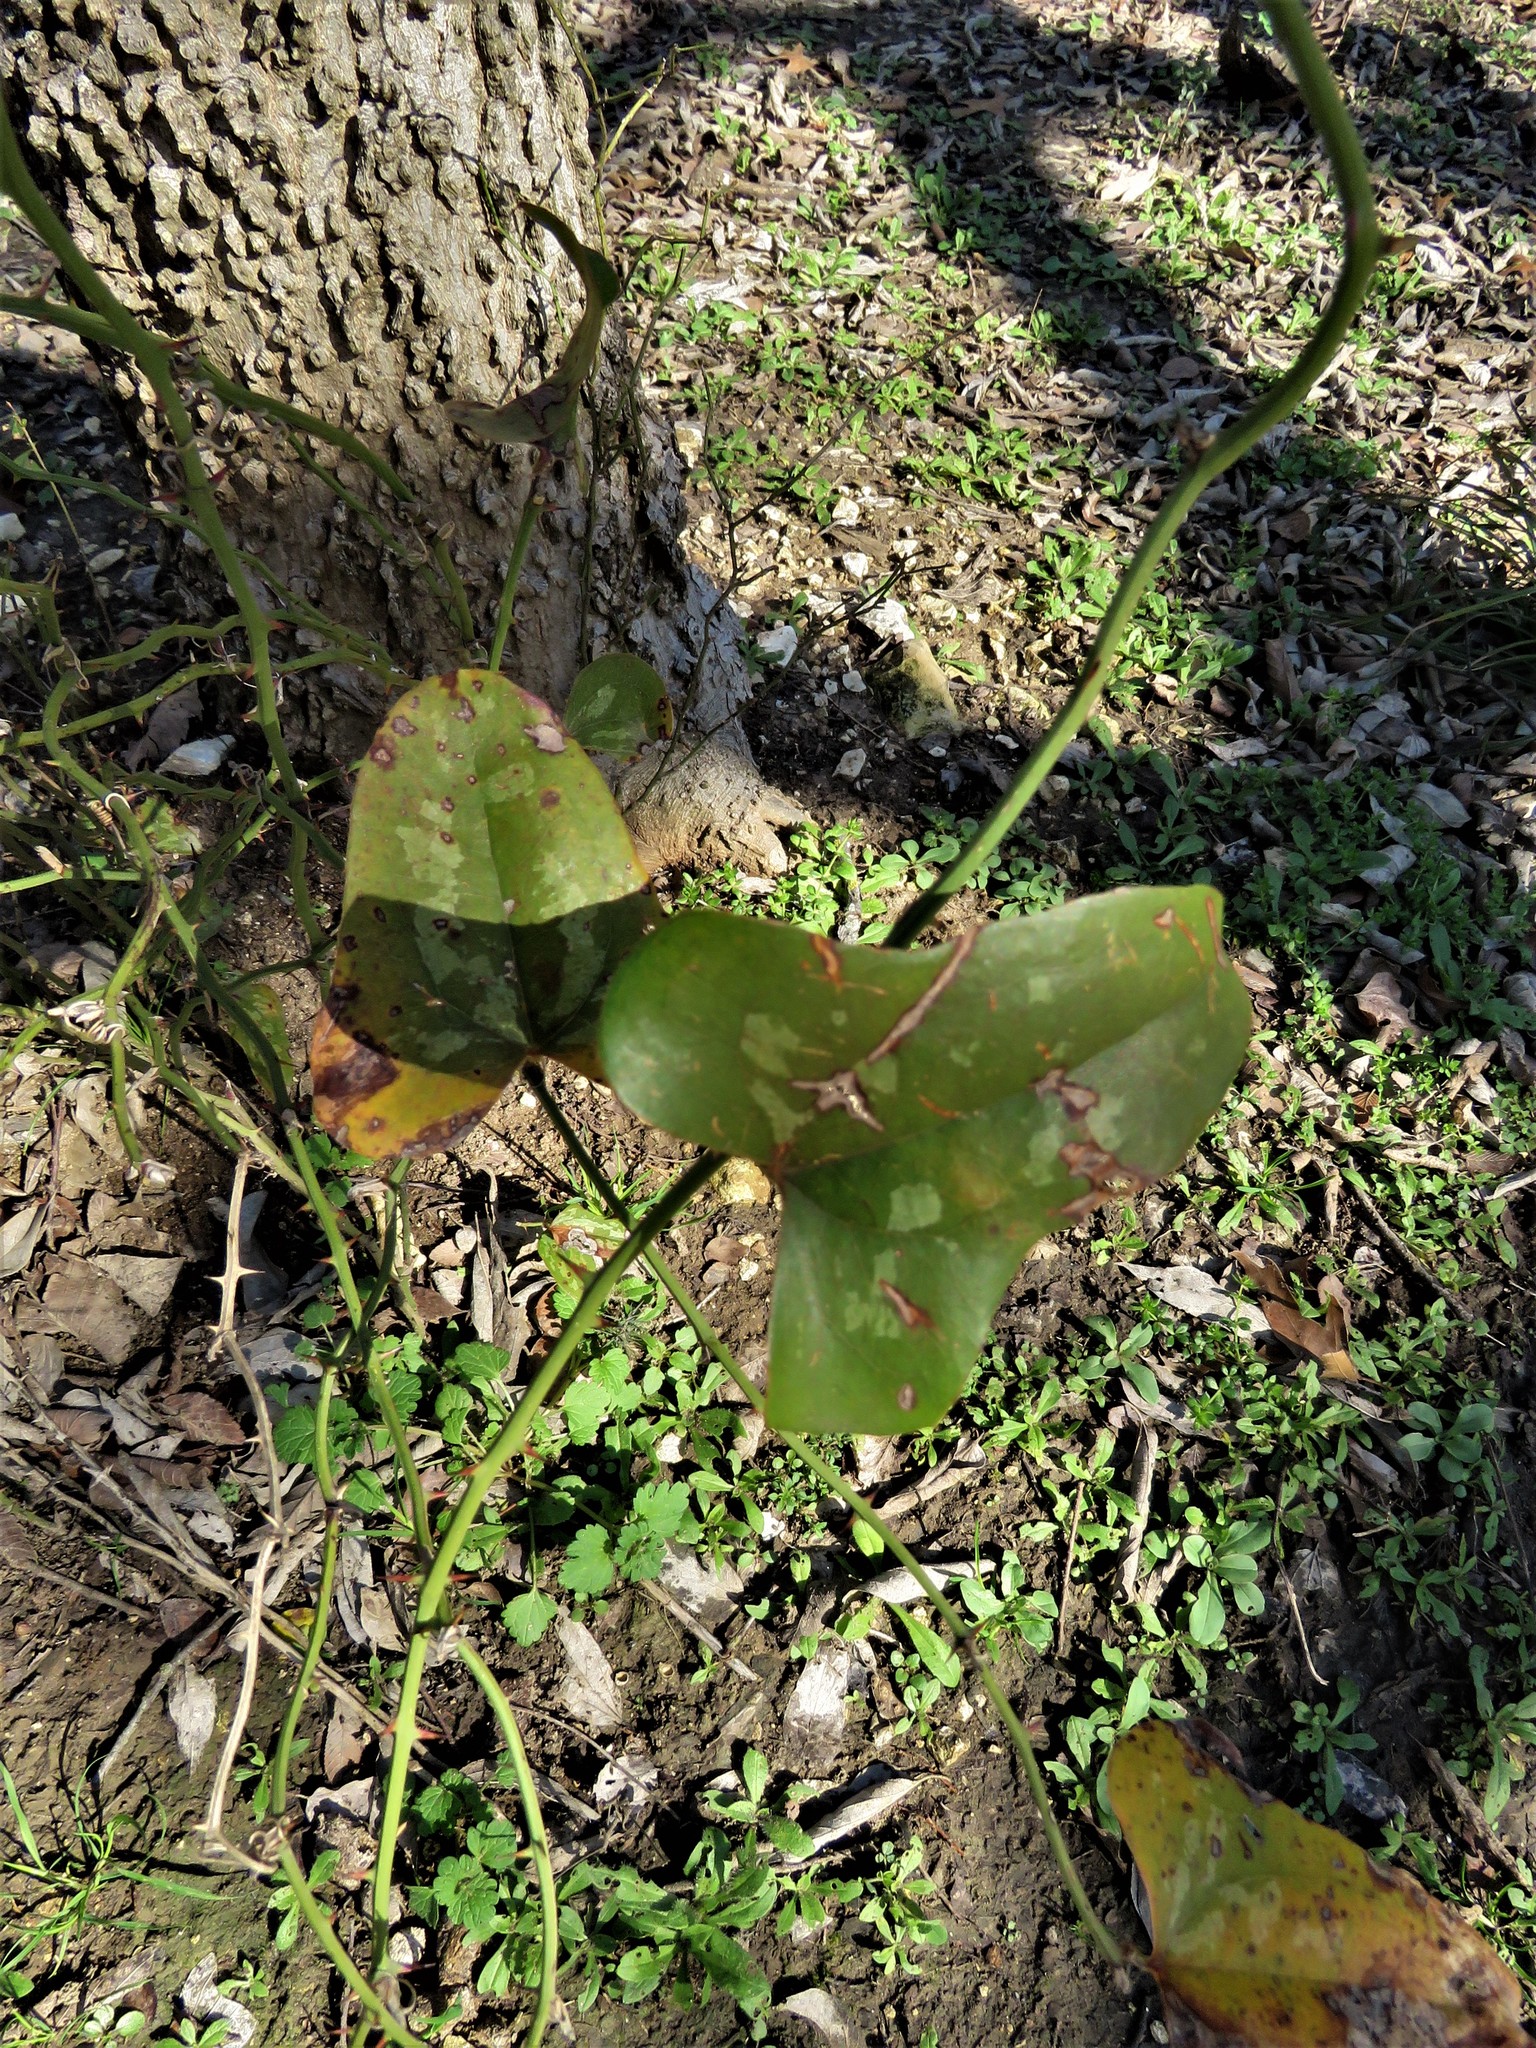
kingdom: Plantae
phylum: Tracheophyta
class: Liliopsida
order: Liliales
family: Smilacaceae
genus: Smilax
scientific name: Smilax bona-nox
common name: Catbrier
